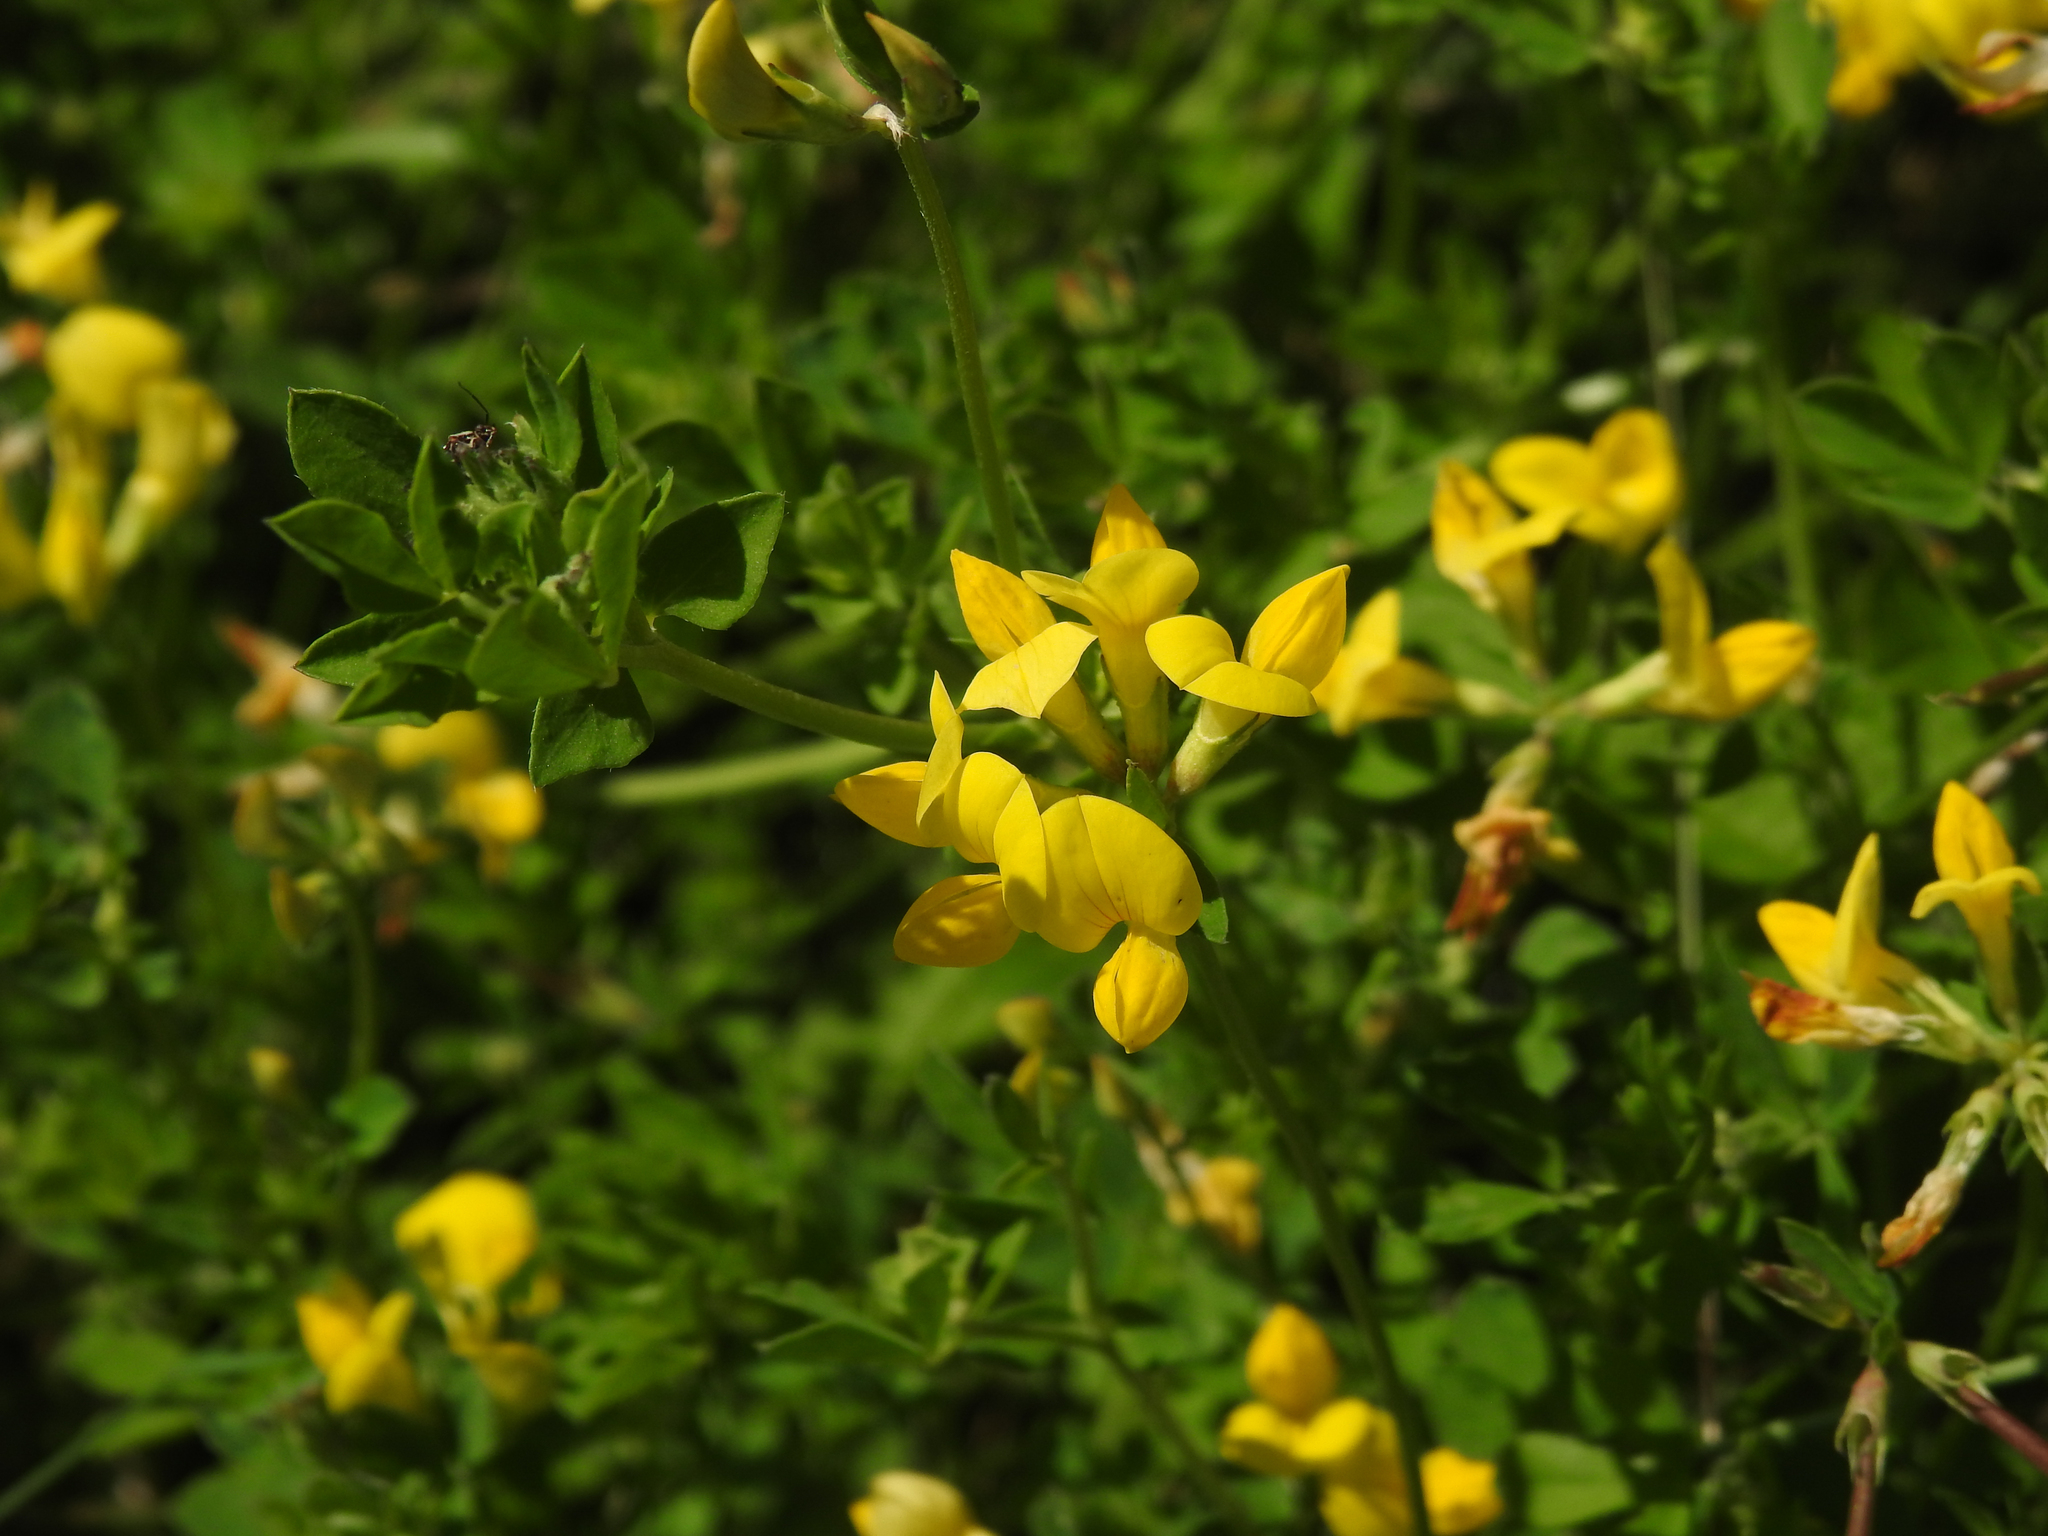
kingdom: Plantae
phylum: Tracheophyta
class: Magnoliopsida
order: Fabales
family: Fabaceae
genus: Lotus
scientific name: Lotus corniculatus
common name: Common bird's-foot-trefoil
